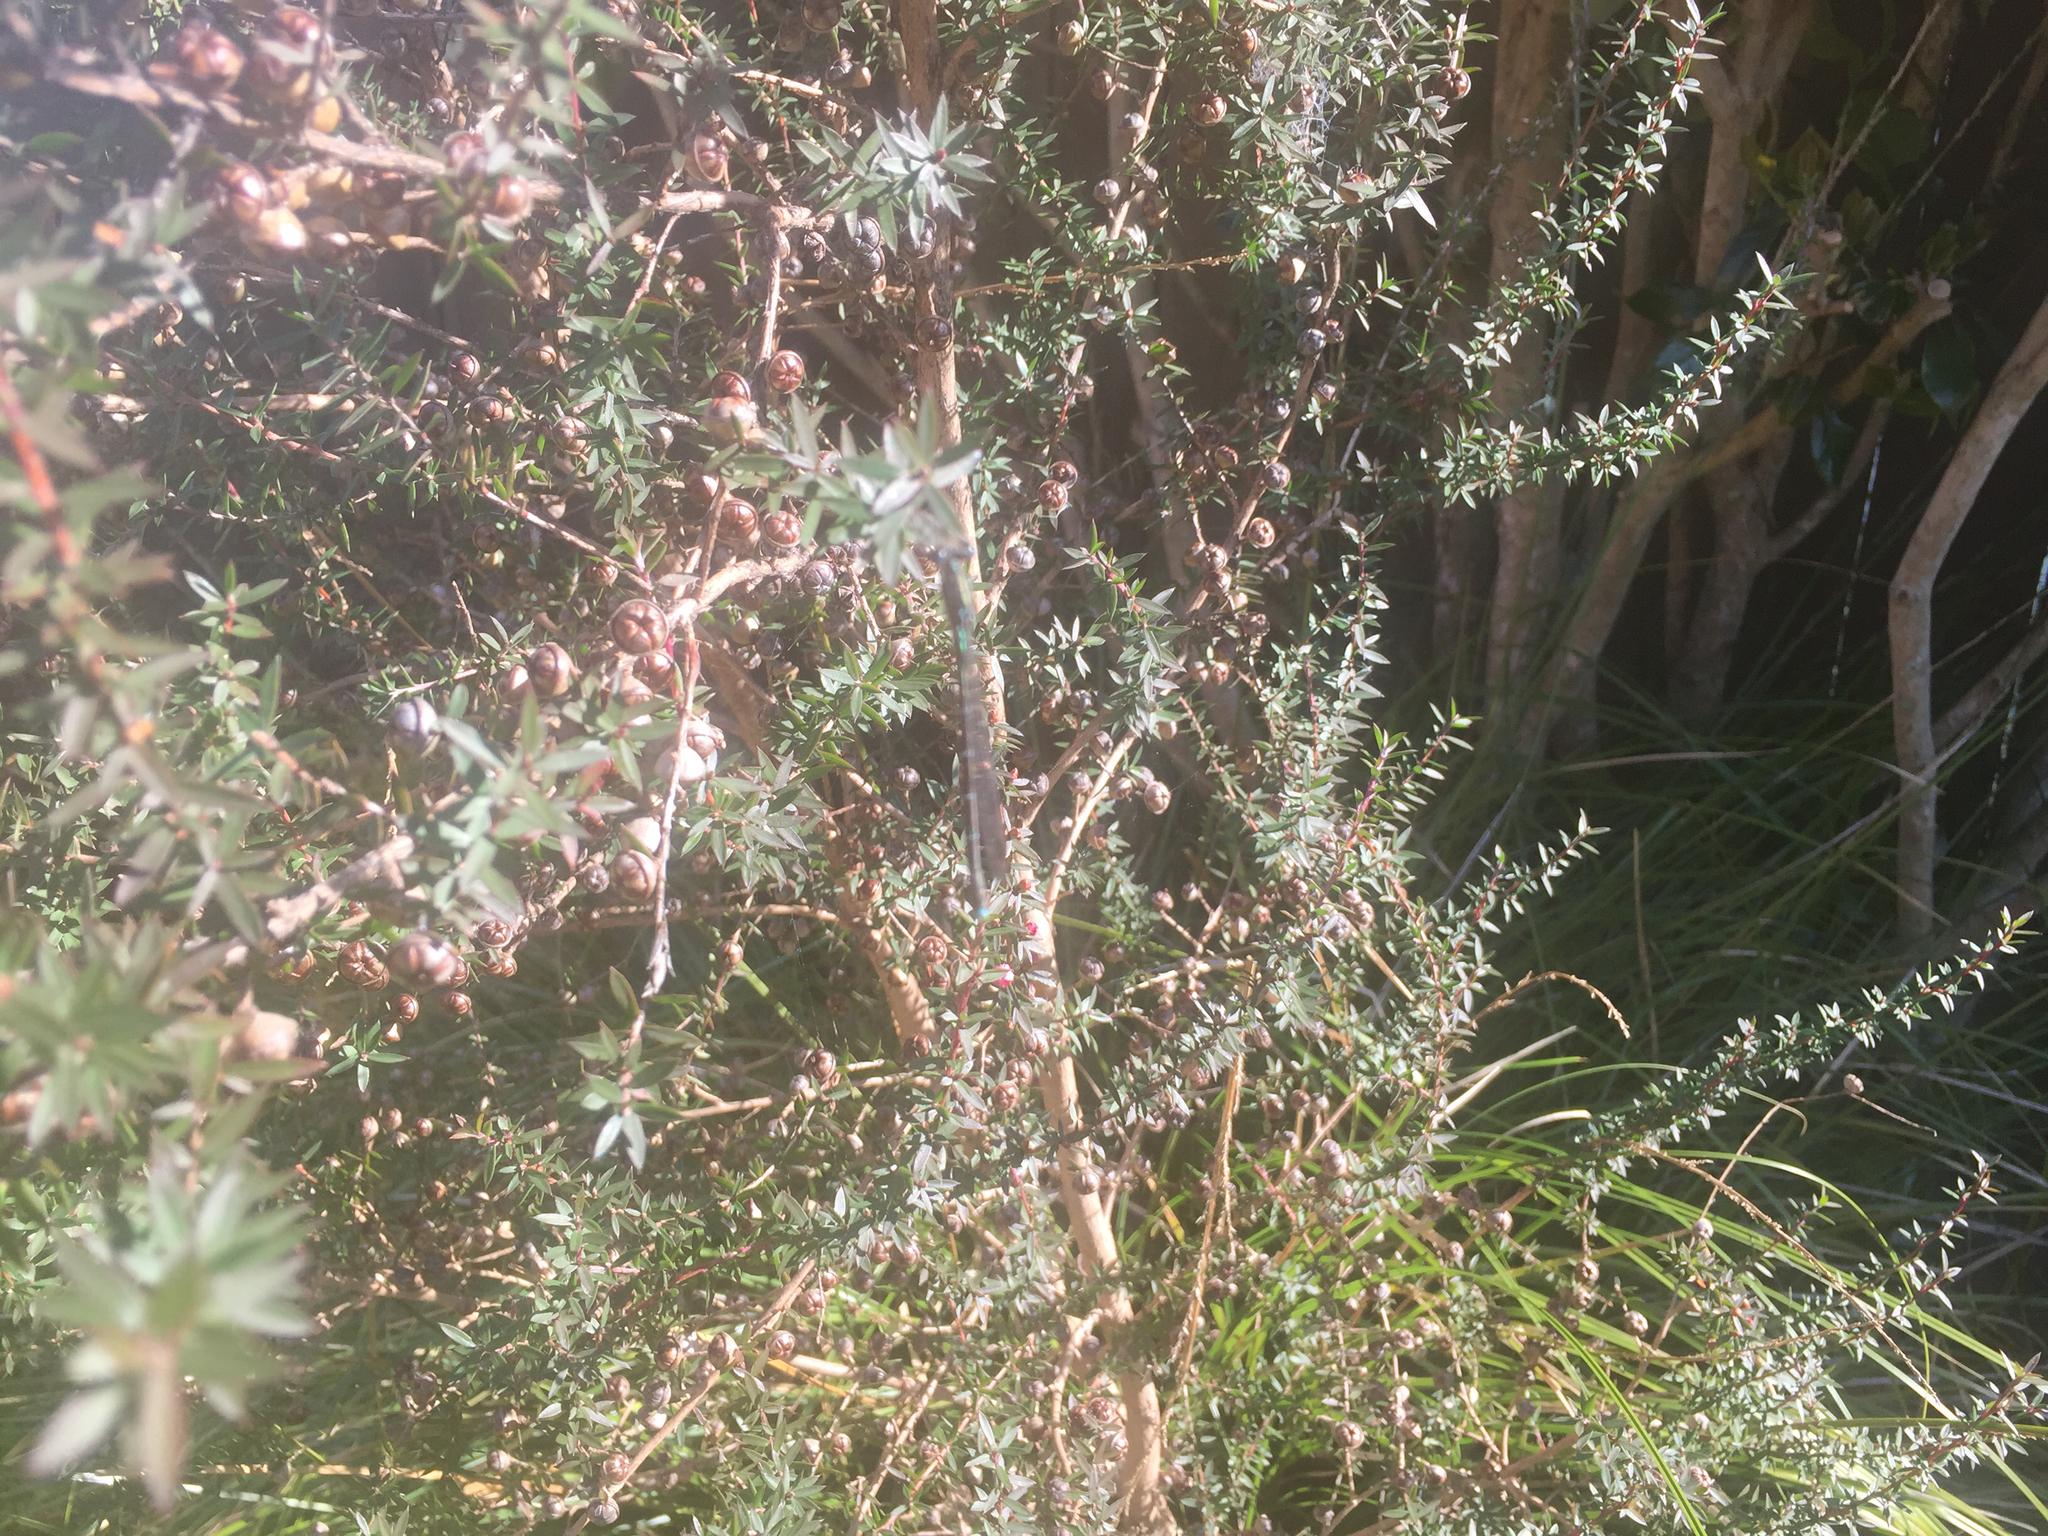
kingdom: Animalia
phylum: Arthropoda
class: Insecta
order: Odonata
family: Lestidae
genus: Austrolestes
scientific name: Austrolestes colensonis
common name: Blue damselfly
